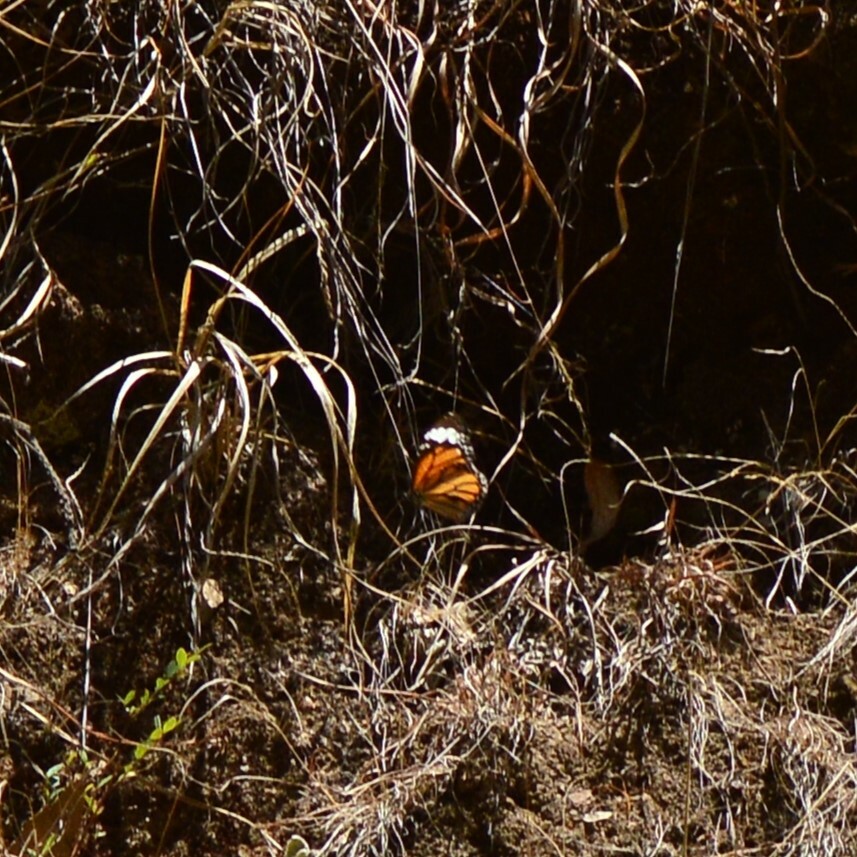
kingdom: Animalia
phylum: Arthropoda
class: Insecta
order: Lepidoptera
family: Nymphalidae
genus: Danaus
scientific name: Danaus genutia
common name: Common tiger butterfly
